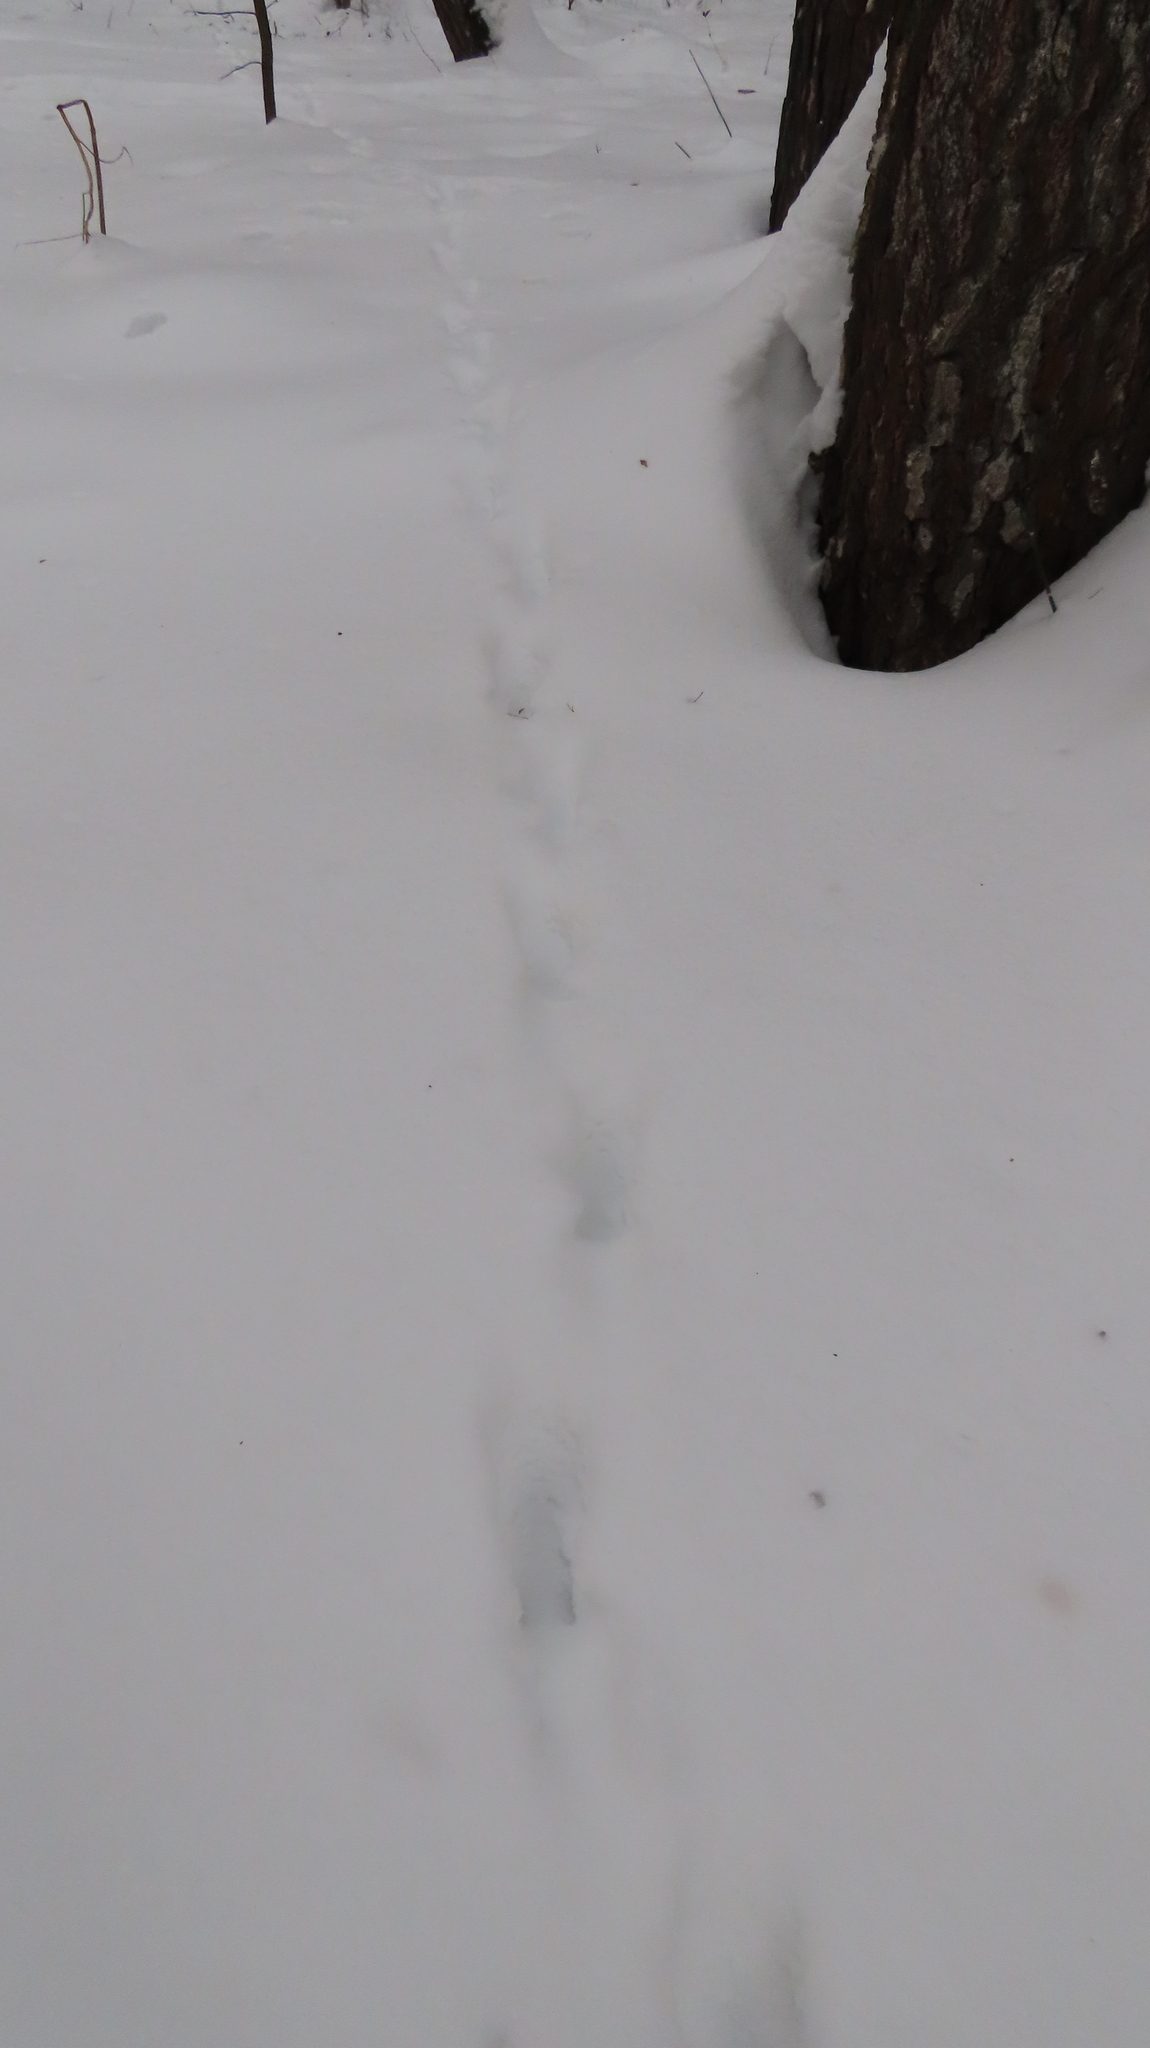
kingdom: Animalia
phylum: Chordata
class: Mammalia
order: Carnivora
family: Canidae
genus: Vulpes
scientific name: Vulpes vulpes
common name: Red fox
